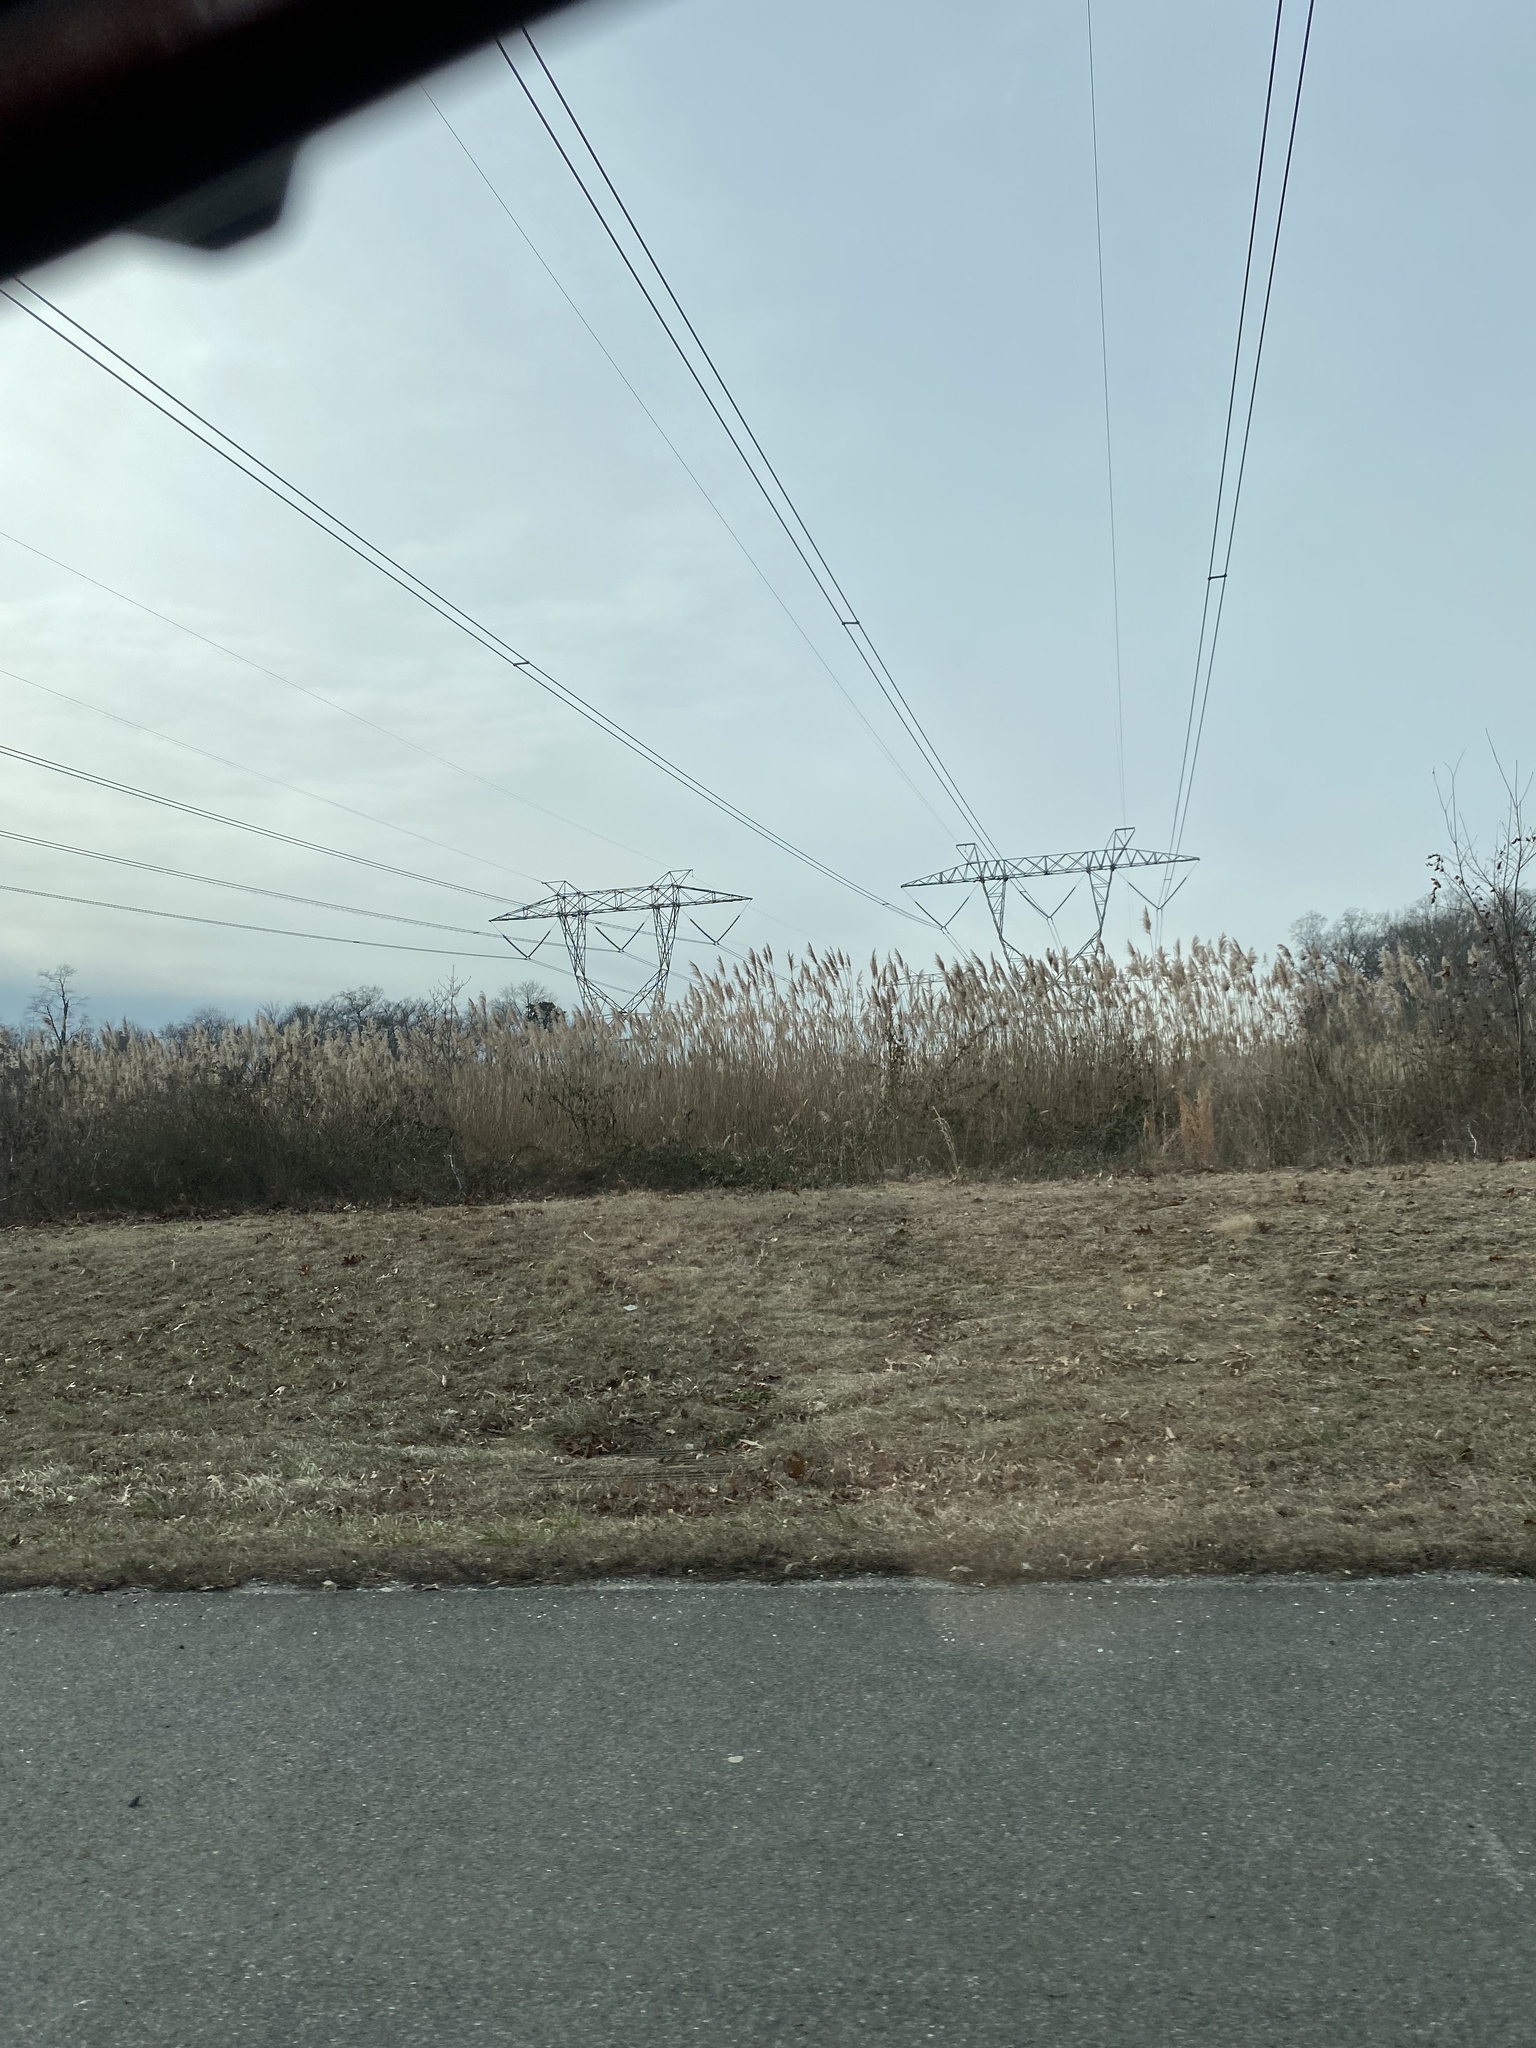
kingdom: Plantae
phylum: Tracheophyta
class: Liliopsida
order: Poales
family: Poaceae
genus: Phragmites
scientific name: Phragmites australis
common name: Common reed
